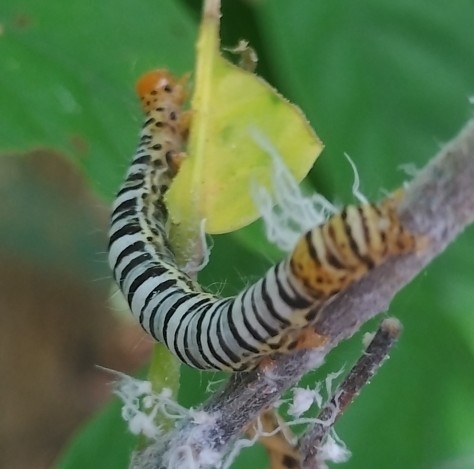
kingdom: Animalia
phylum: Arthropoda
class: Insecta
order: Lepidoptera
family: Erebidae
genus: Falana
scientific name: Falana sordida
